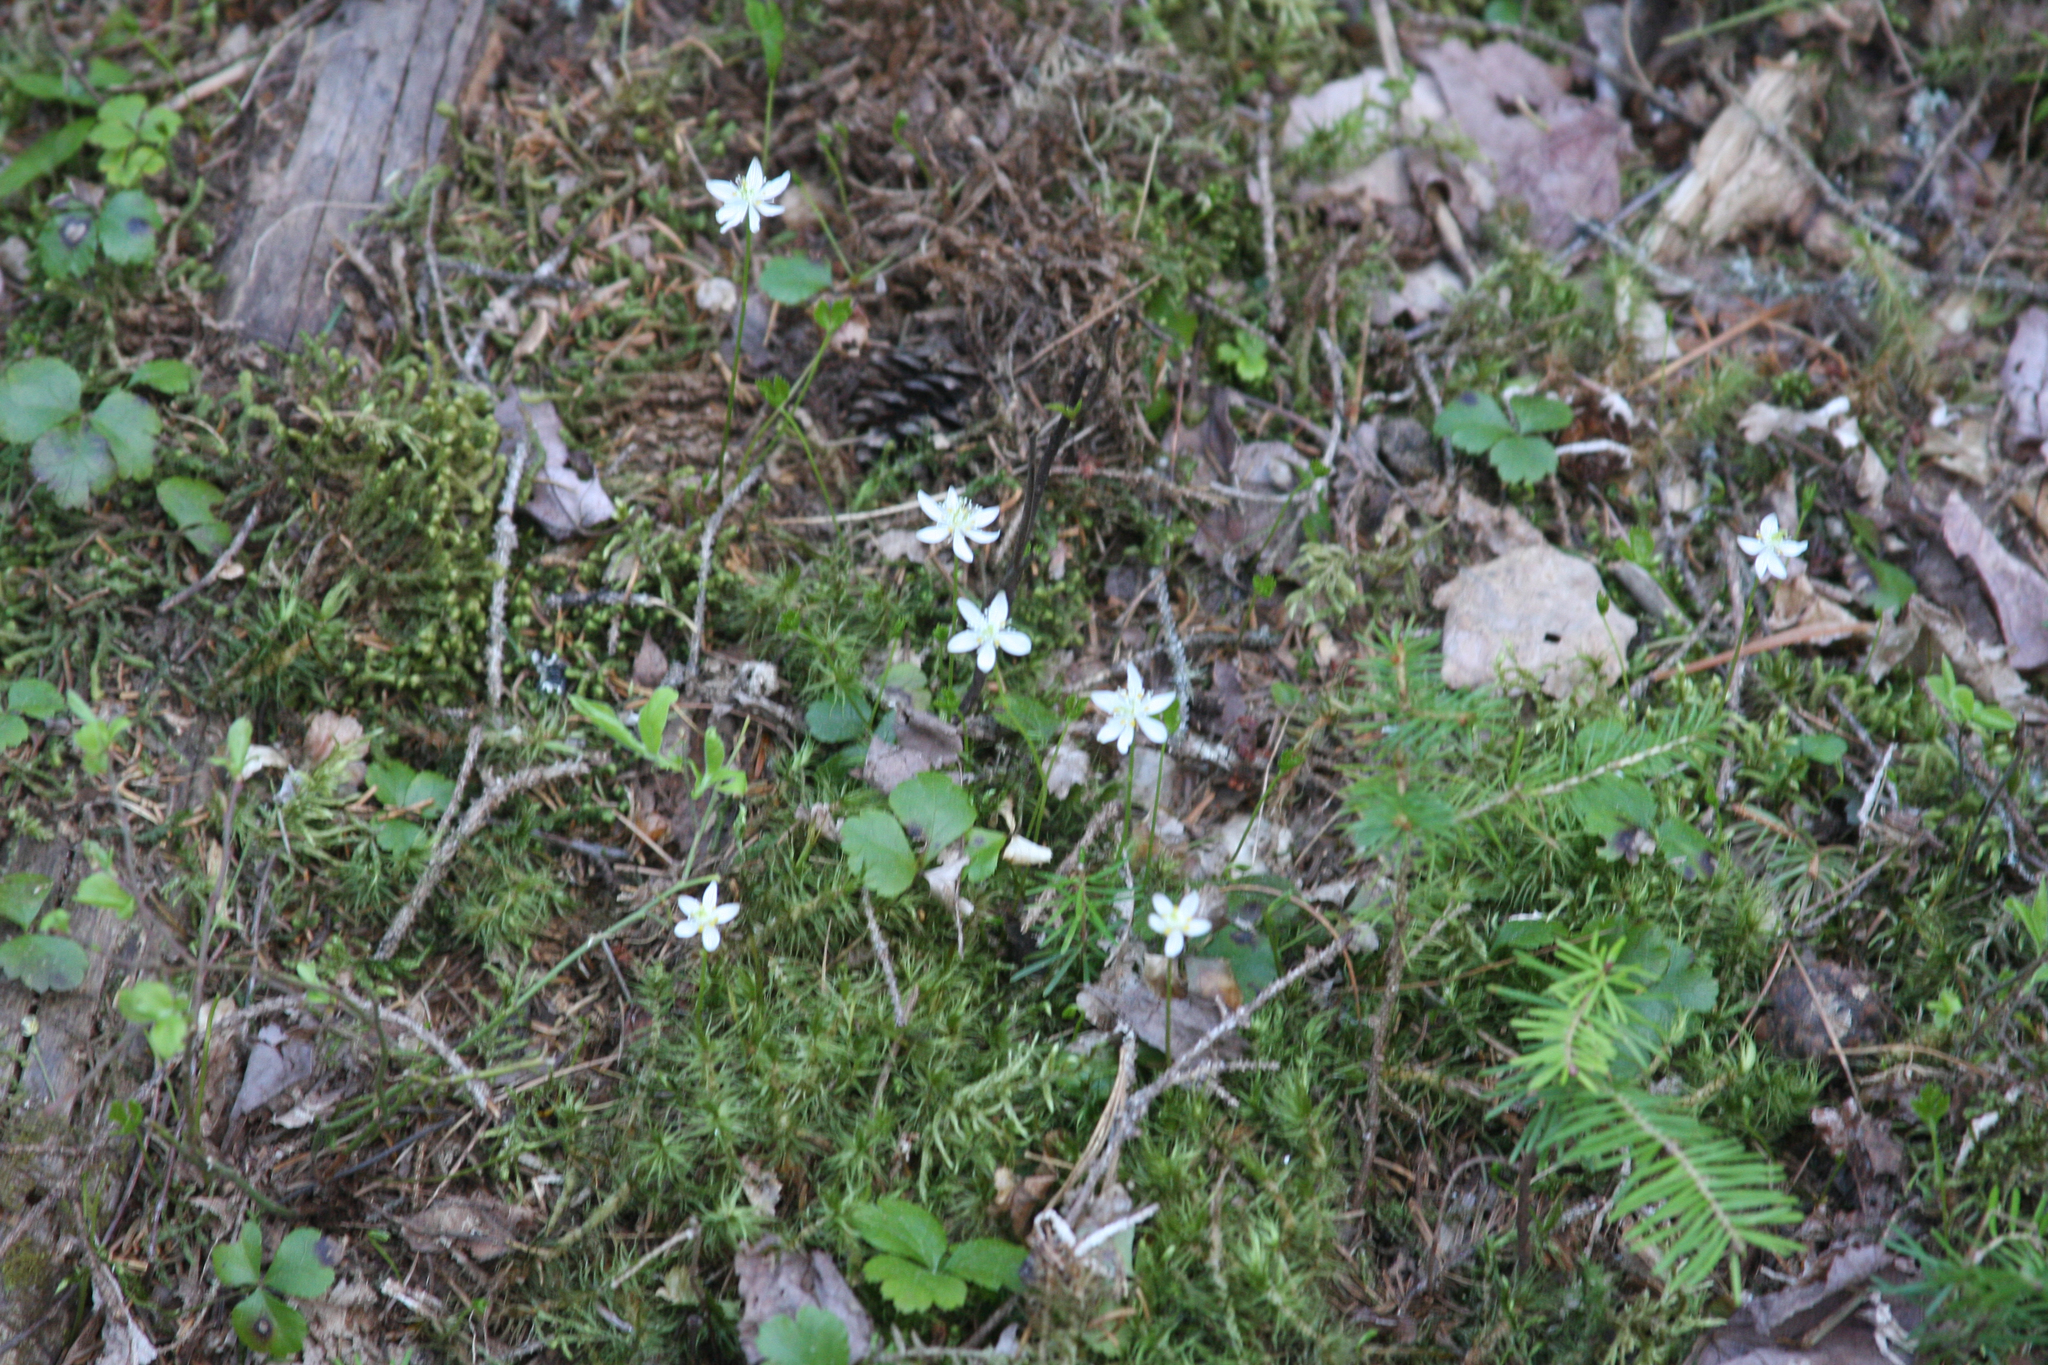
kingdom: Plantae
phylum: Tracheophyta
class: Magnoliopsida
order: Ranunculales
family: Ranunculaceae
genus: Coptis
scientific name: Coptis trifolia
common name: Canker-root
